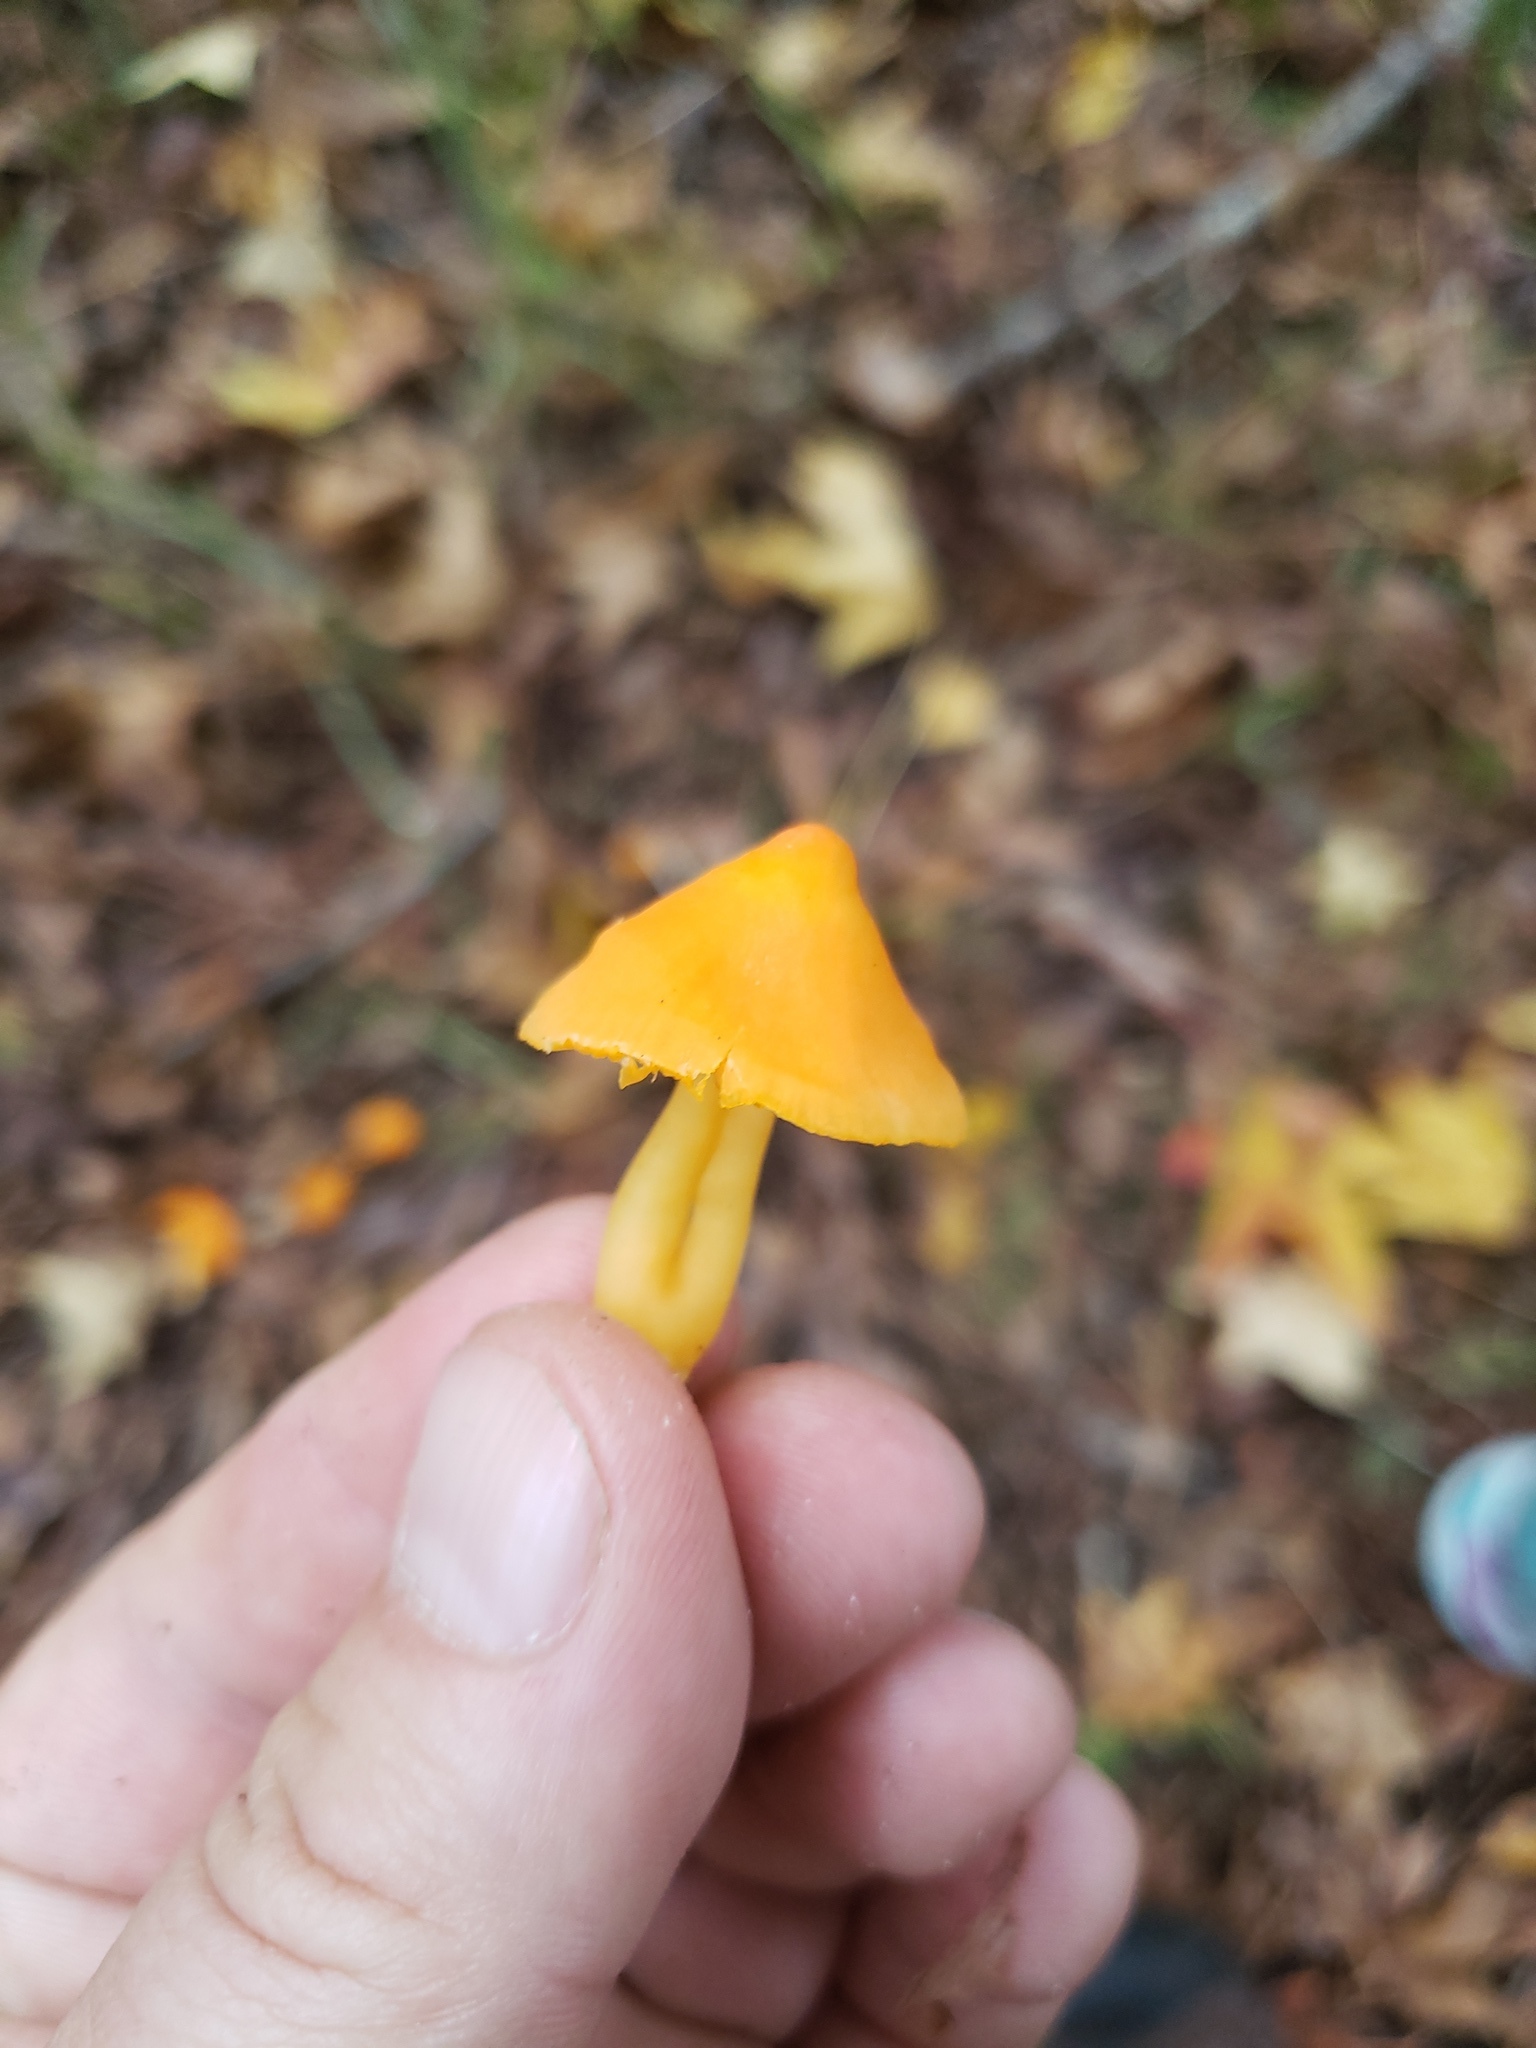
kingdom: Fungi
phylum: Basidiomycota
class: Agaricomycetes
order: Agaricales
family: Hygrophoraceae
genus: Humidicutis
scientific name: Humidicutis marginata
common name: Orange gilled waxcap
